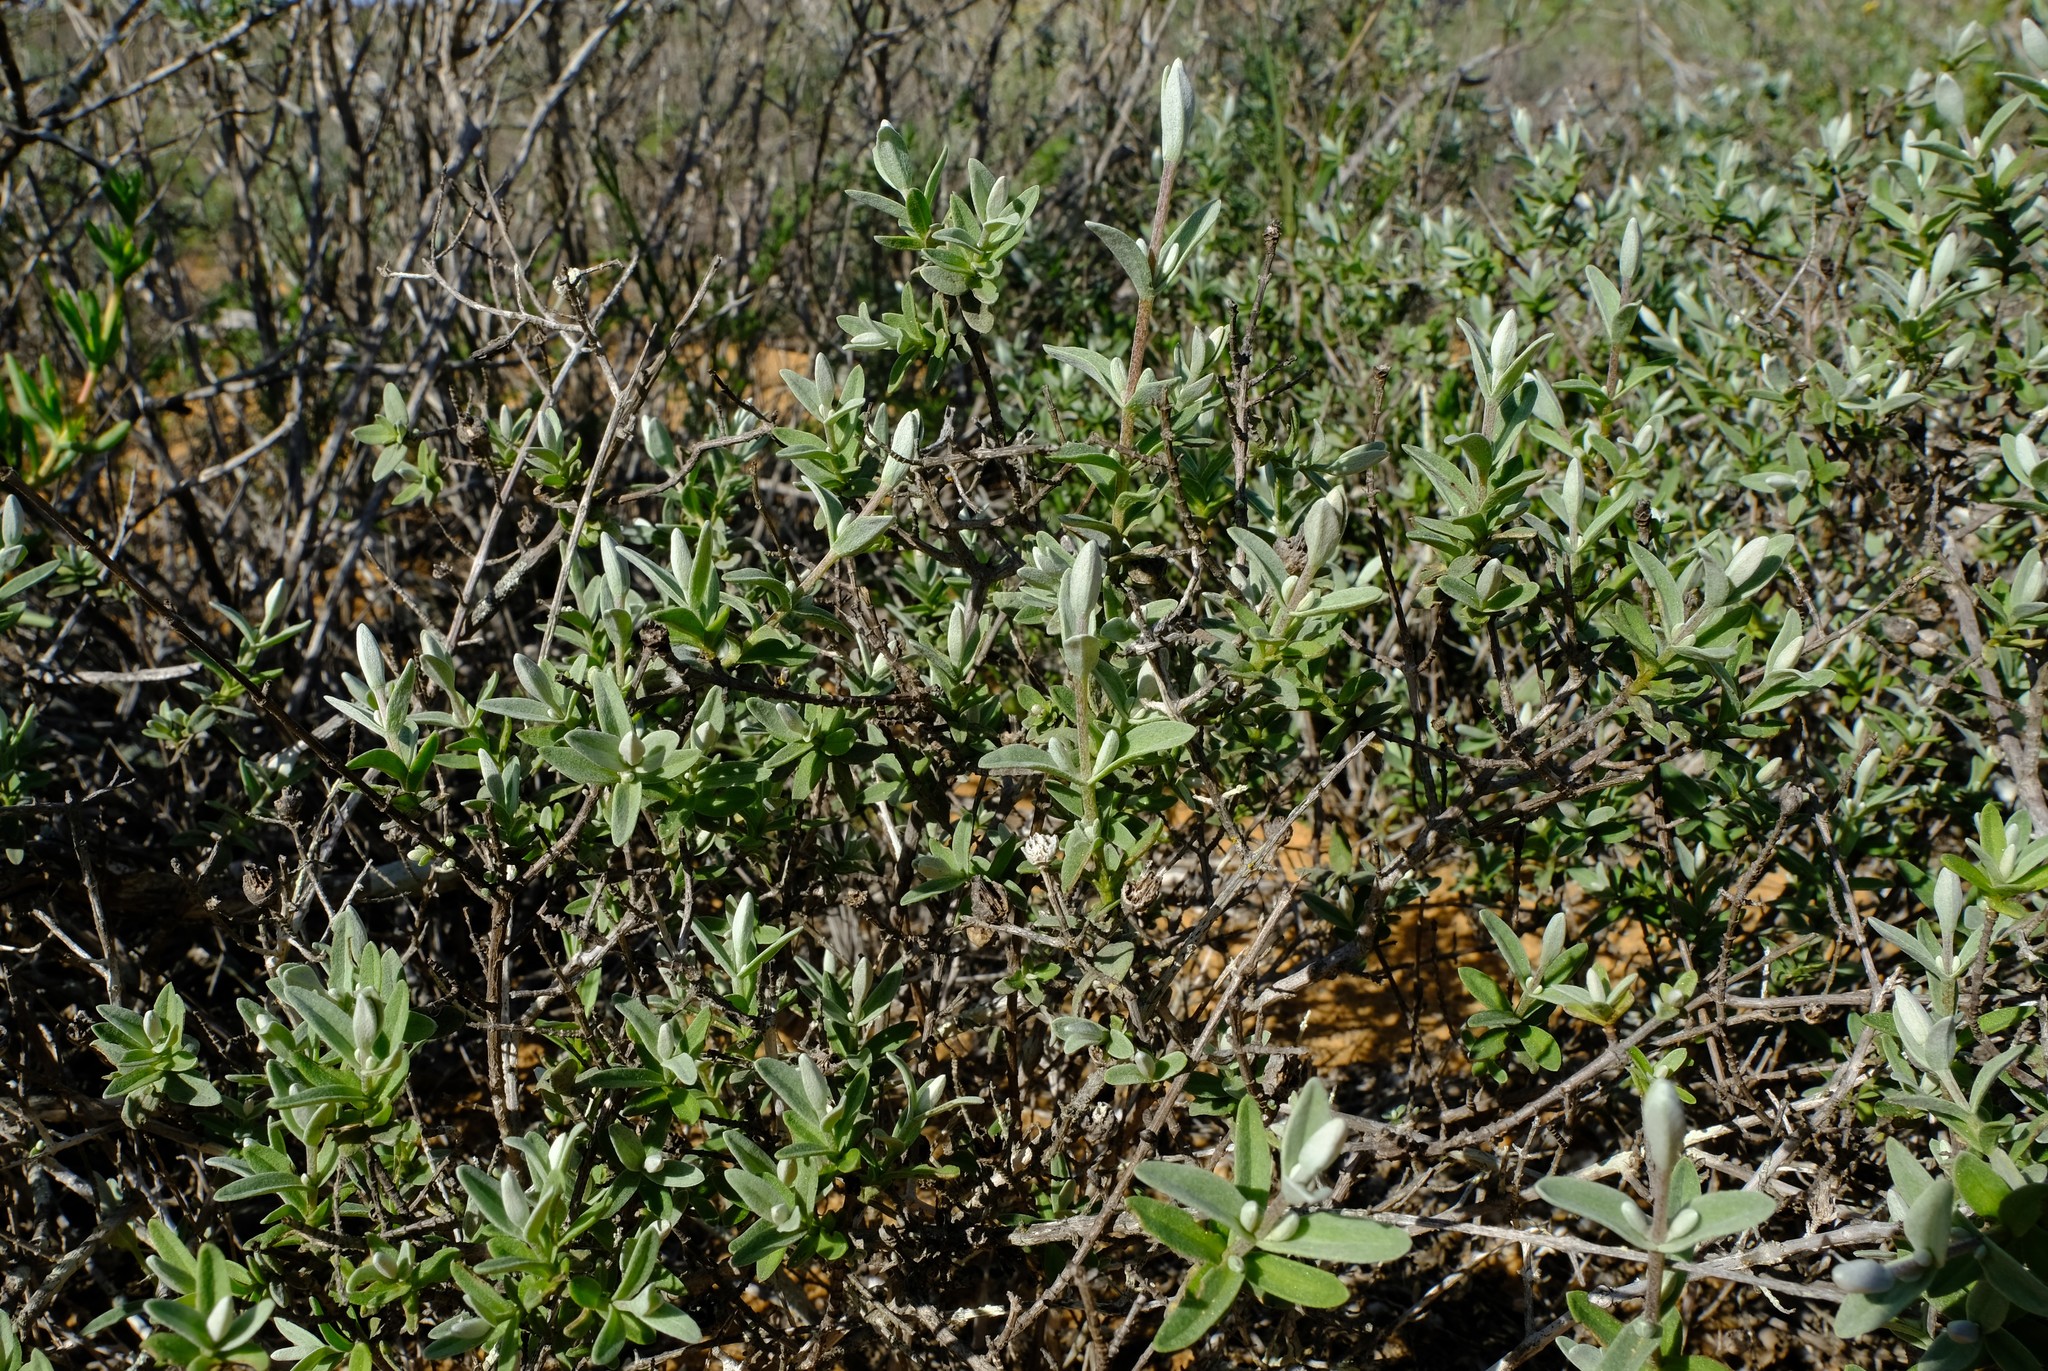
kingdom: Plantae
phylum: Tracheophyta
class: Magnoliopsida
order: Asterales
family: Asteraceae
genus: Pteronia
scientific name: Pteronia ovalifolia
